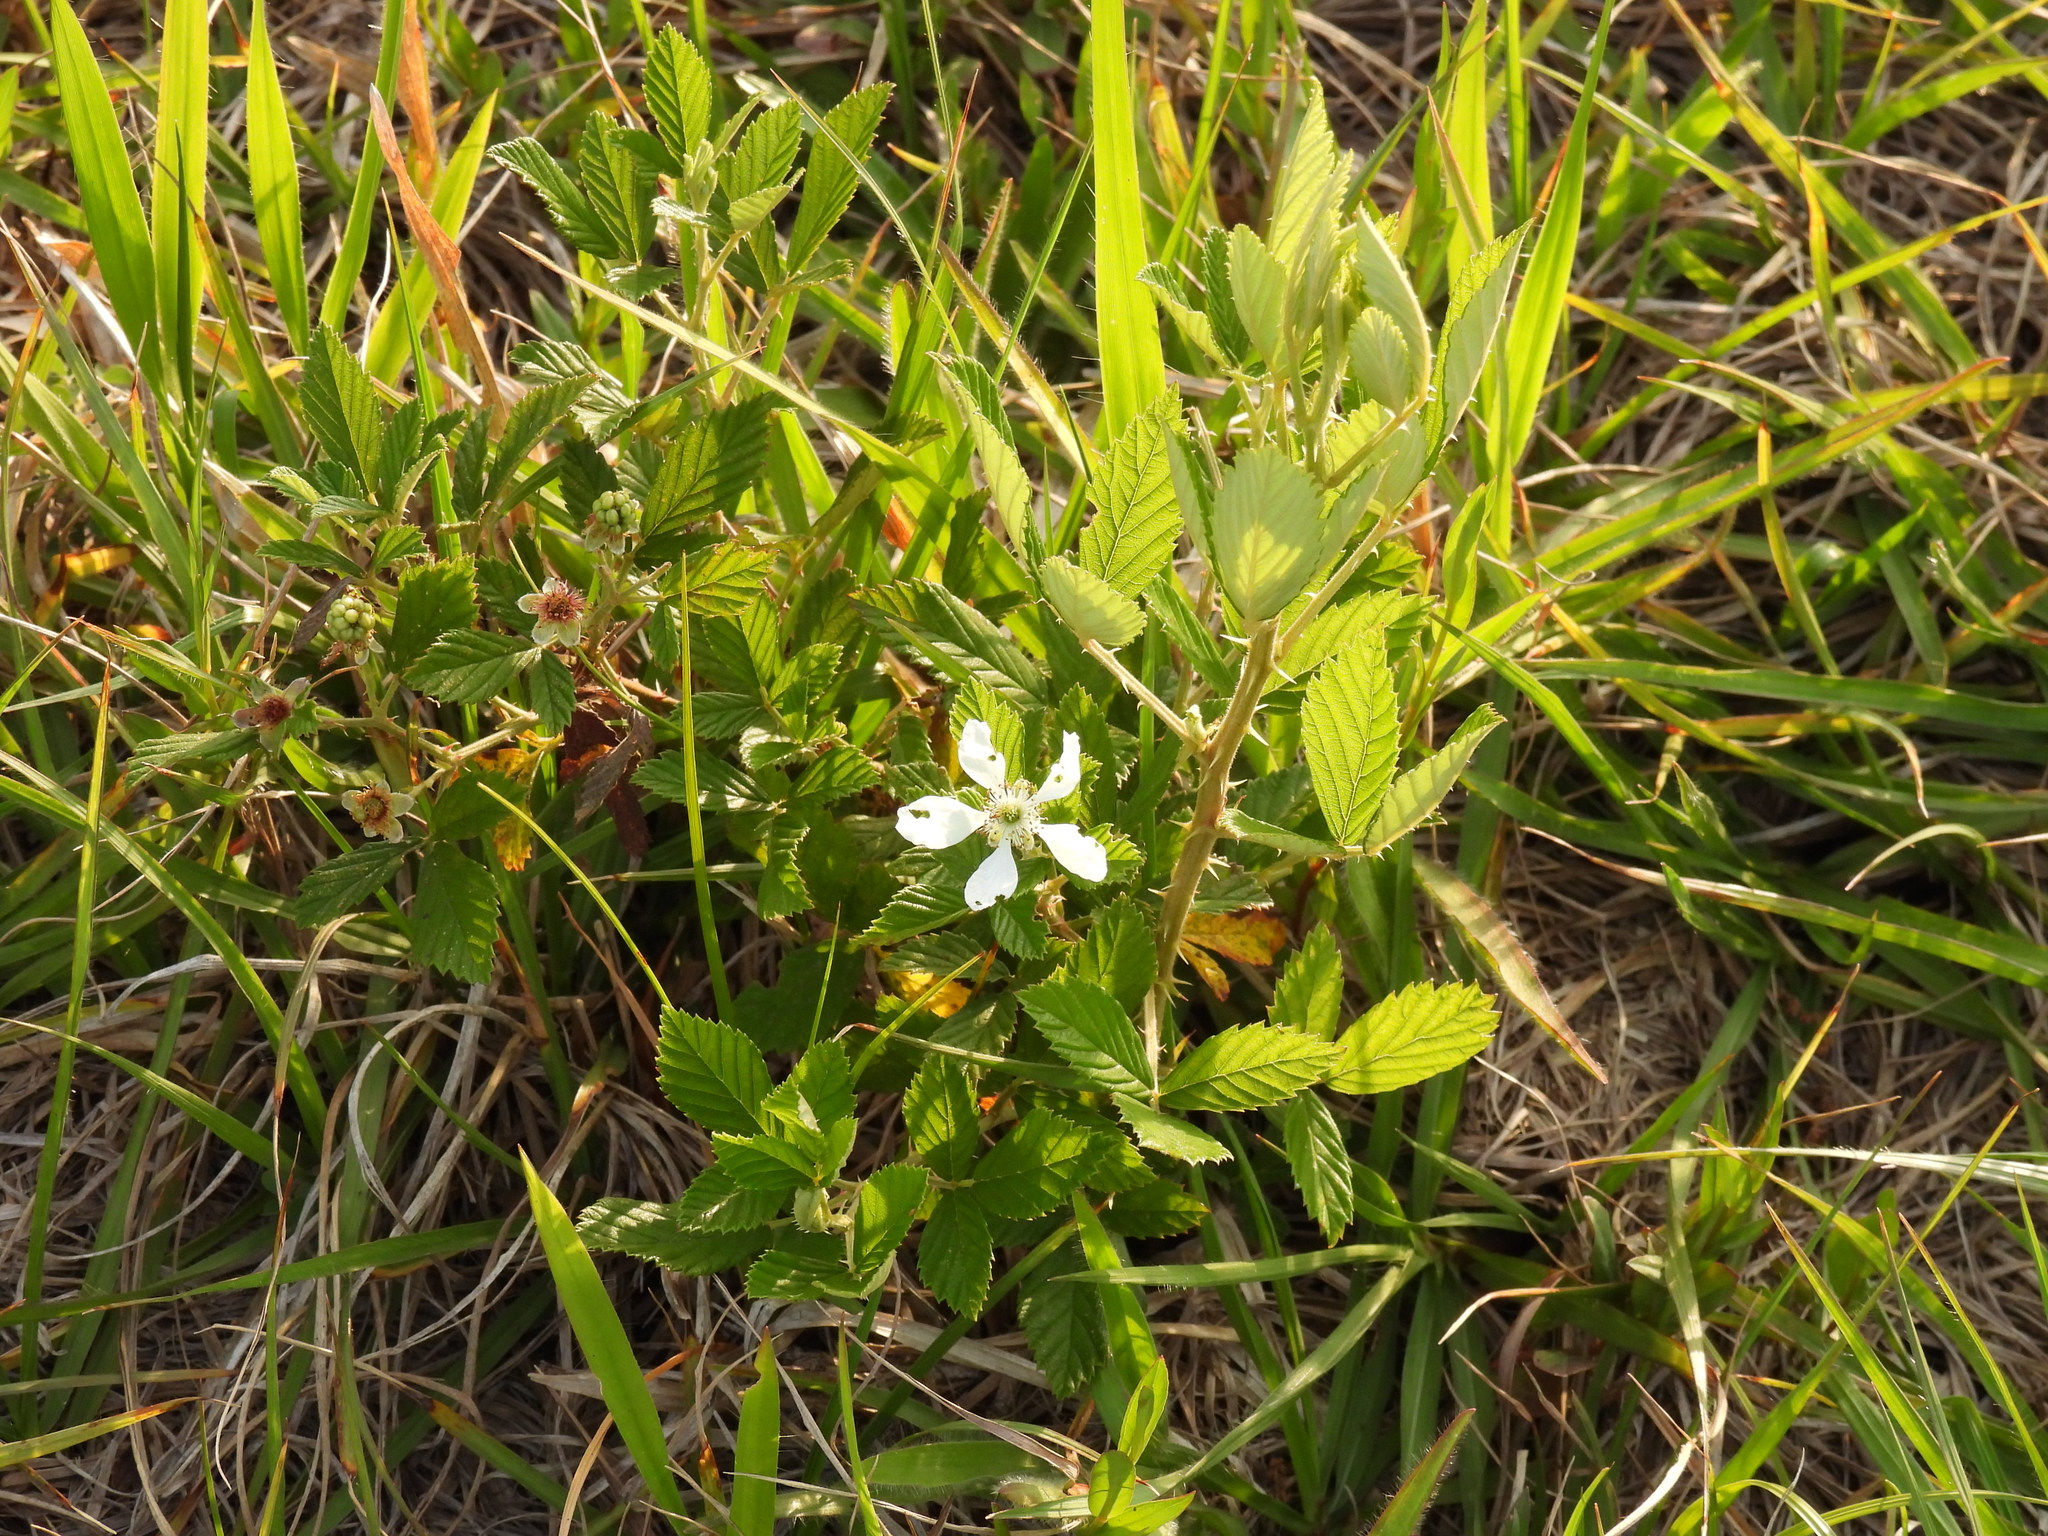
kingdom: Plantae
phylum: Tracheophyta
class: Magnoliopsida
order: Rosales
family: Rosaceae
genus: Rubus
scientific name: Rubus cuneifolius
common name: American bramble
